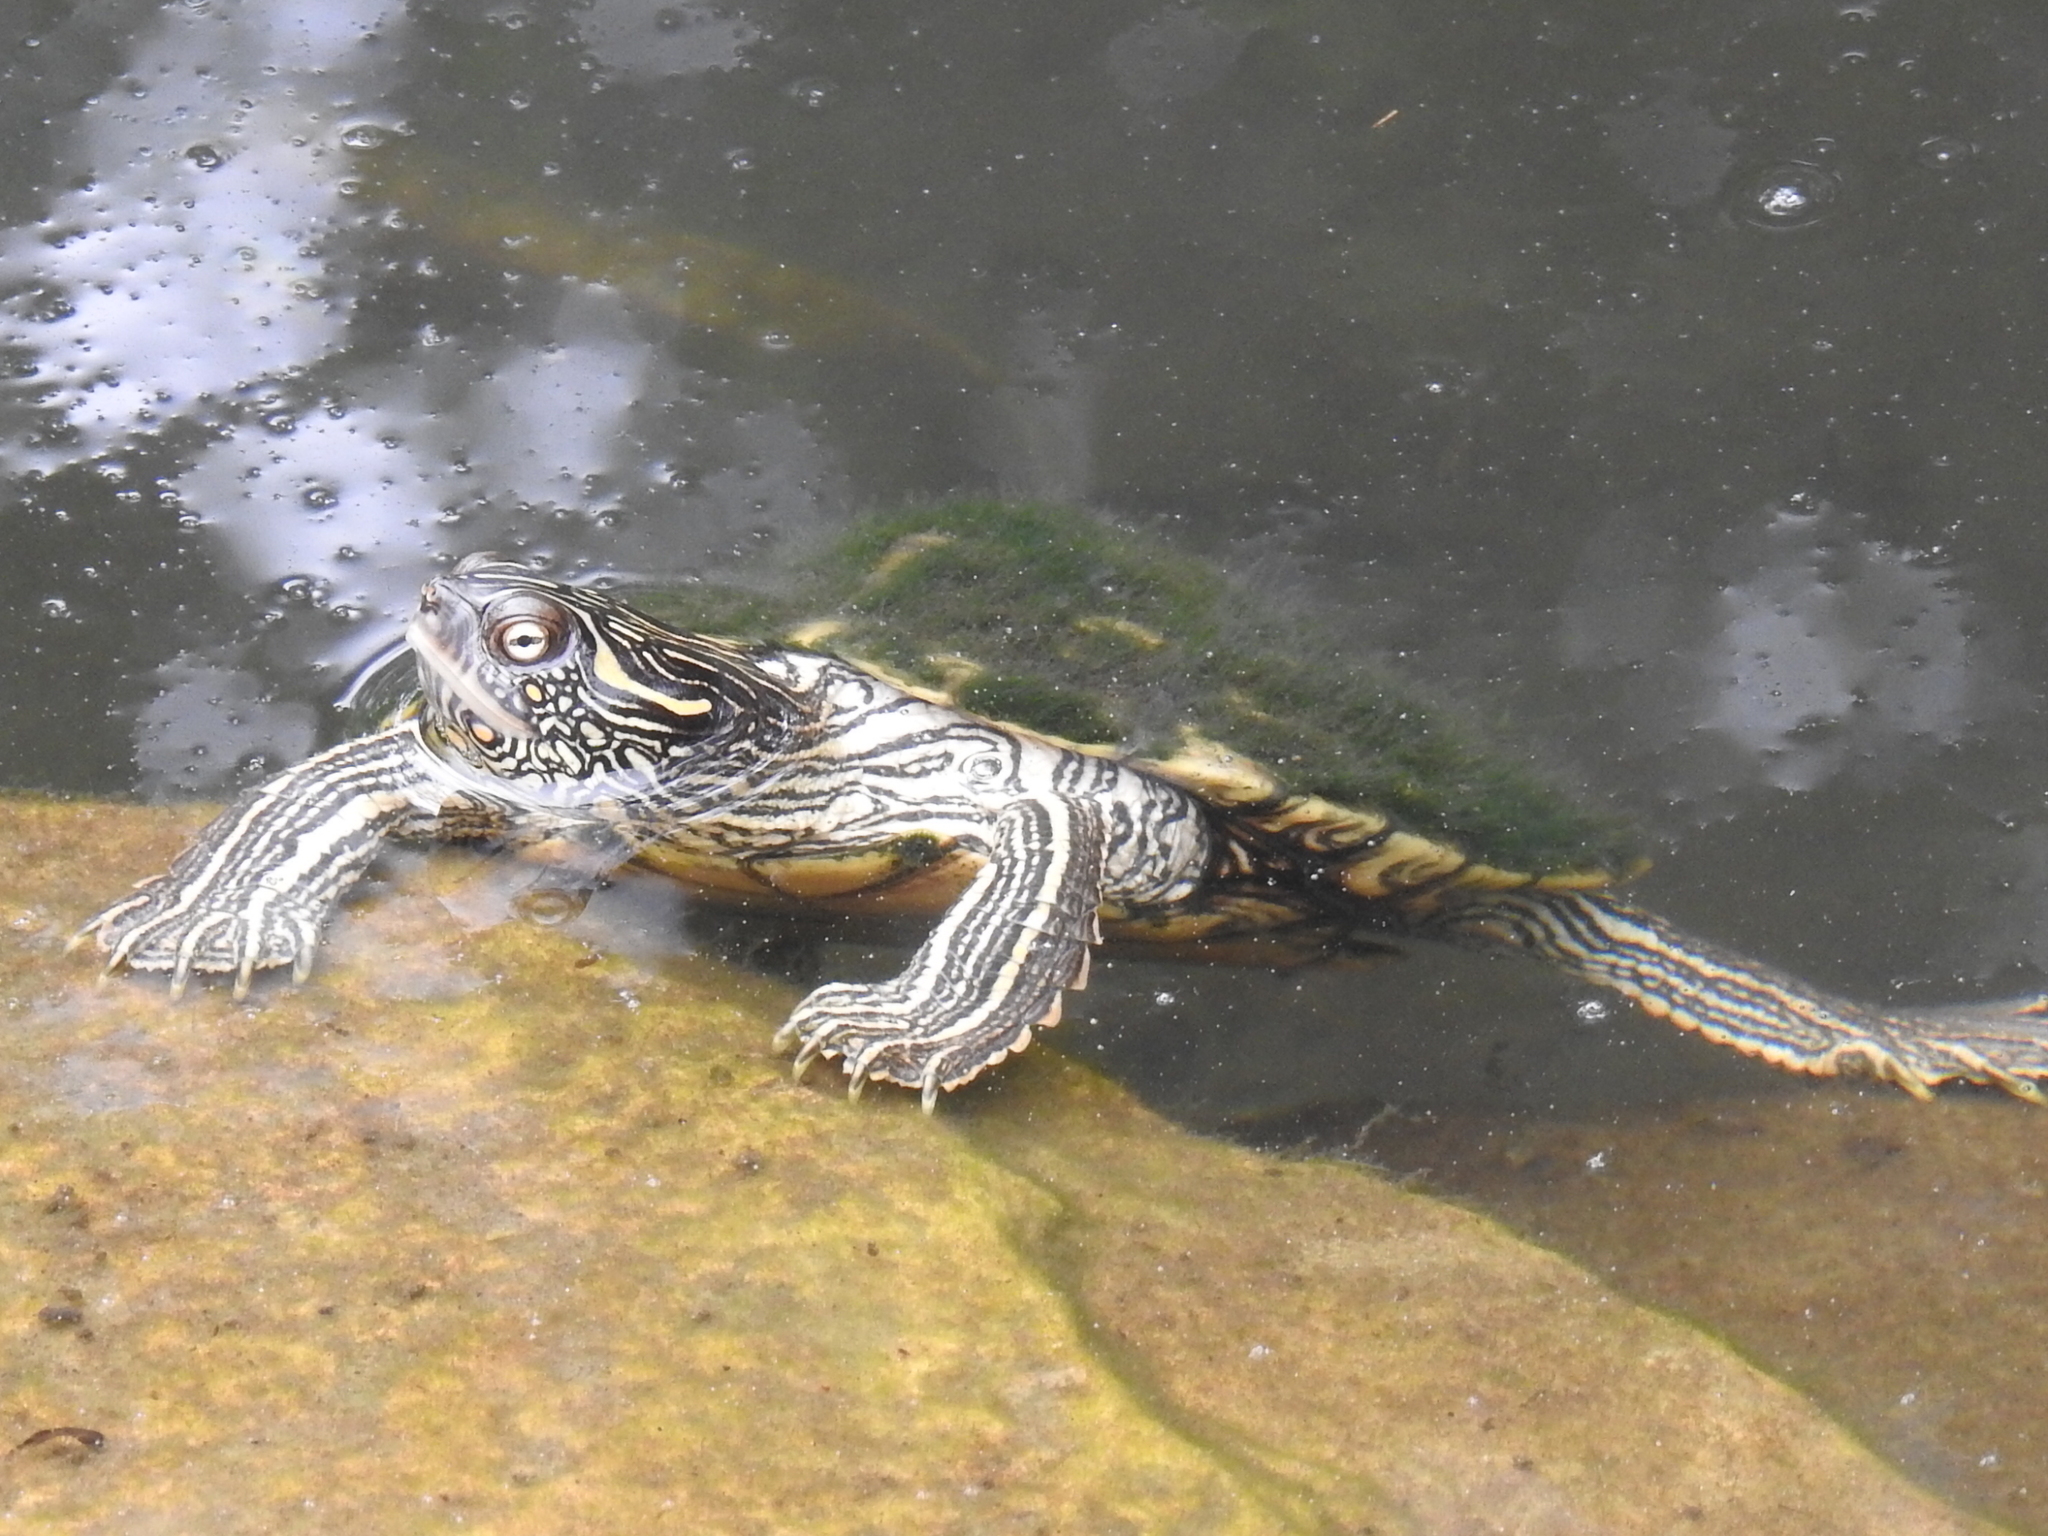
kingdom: Animalia
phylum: Chordata
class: Testudines
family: Emydidae
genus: Graptemys
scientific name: Graptemys versa
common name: Texas map turtle
